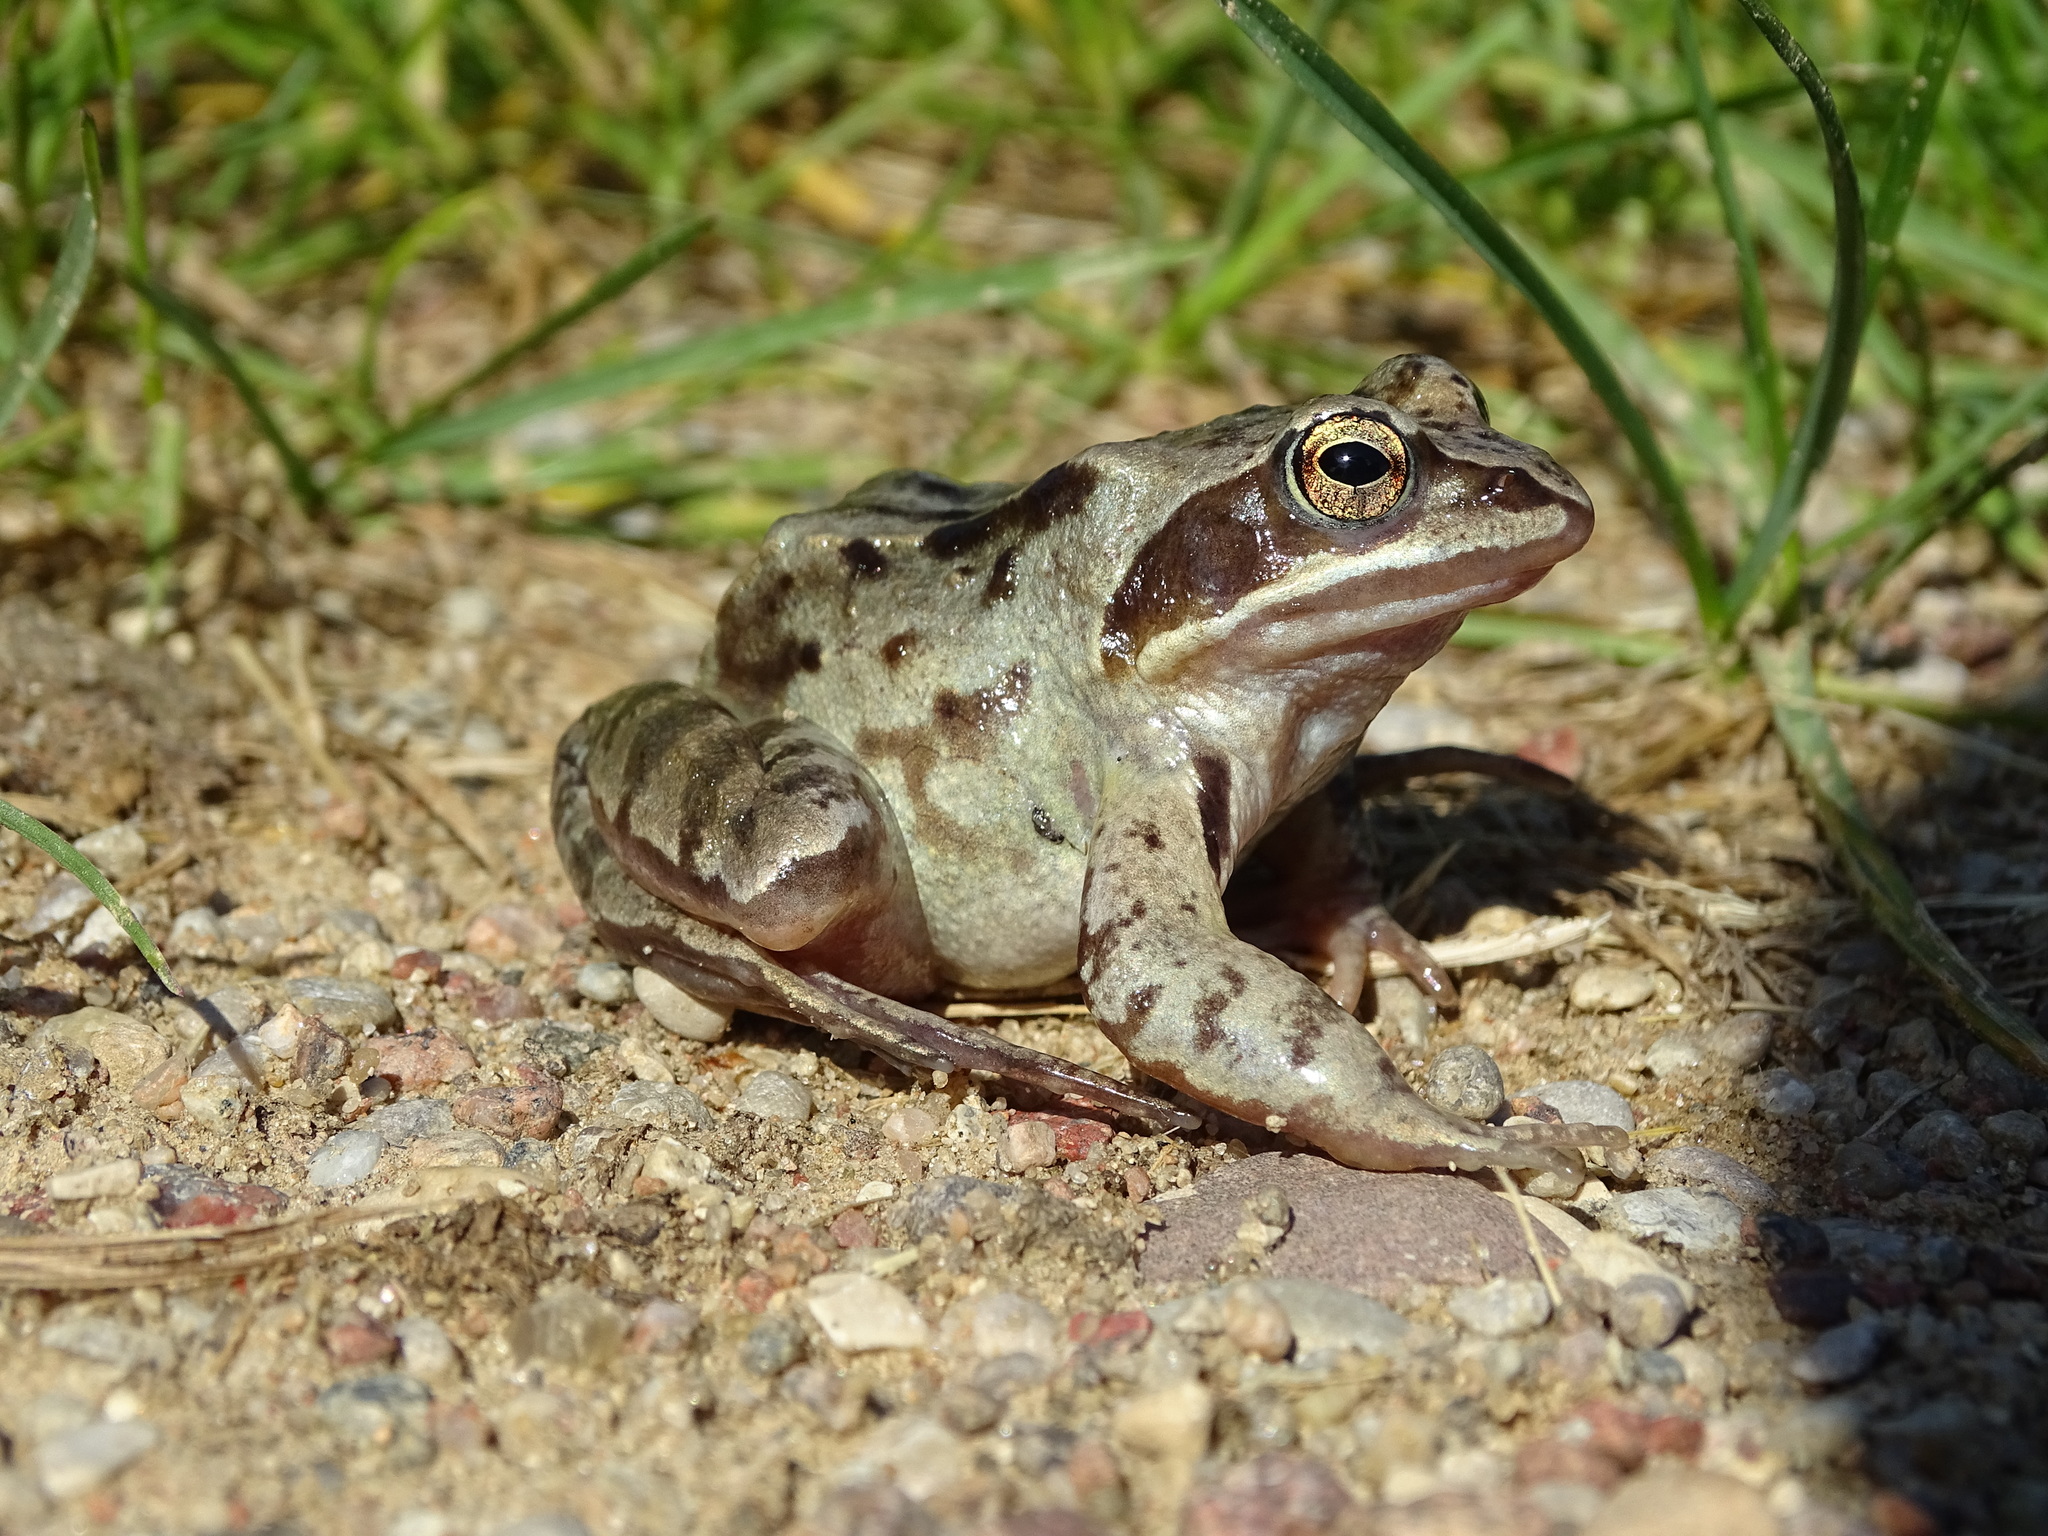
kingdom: Animalia
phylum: Chordata
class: Amphibia
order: Anura
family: Ranidae
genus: Rana
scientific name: Rana arvalis
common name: Moor frog
